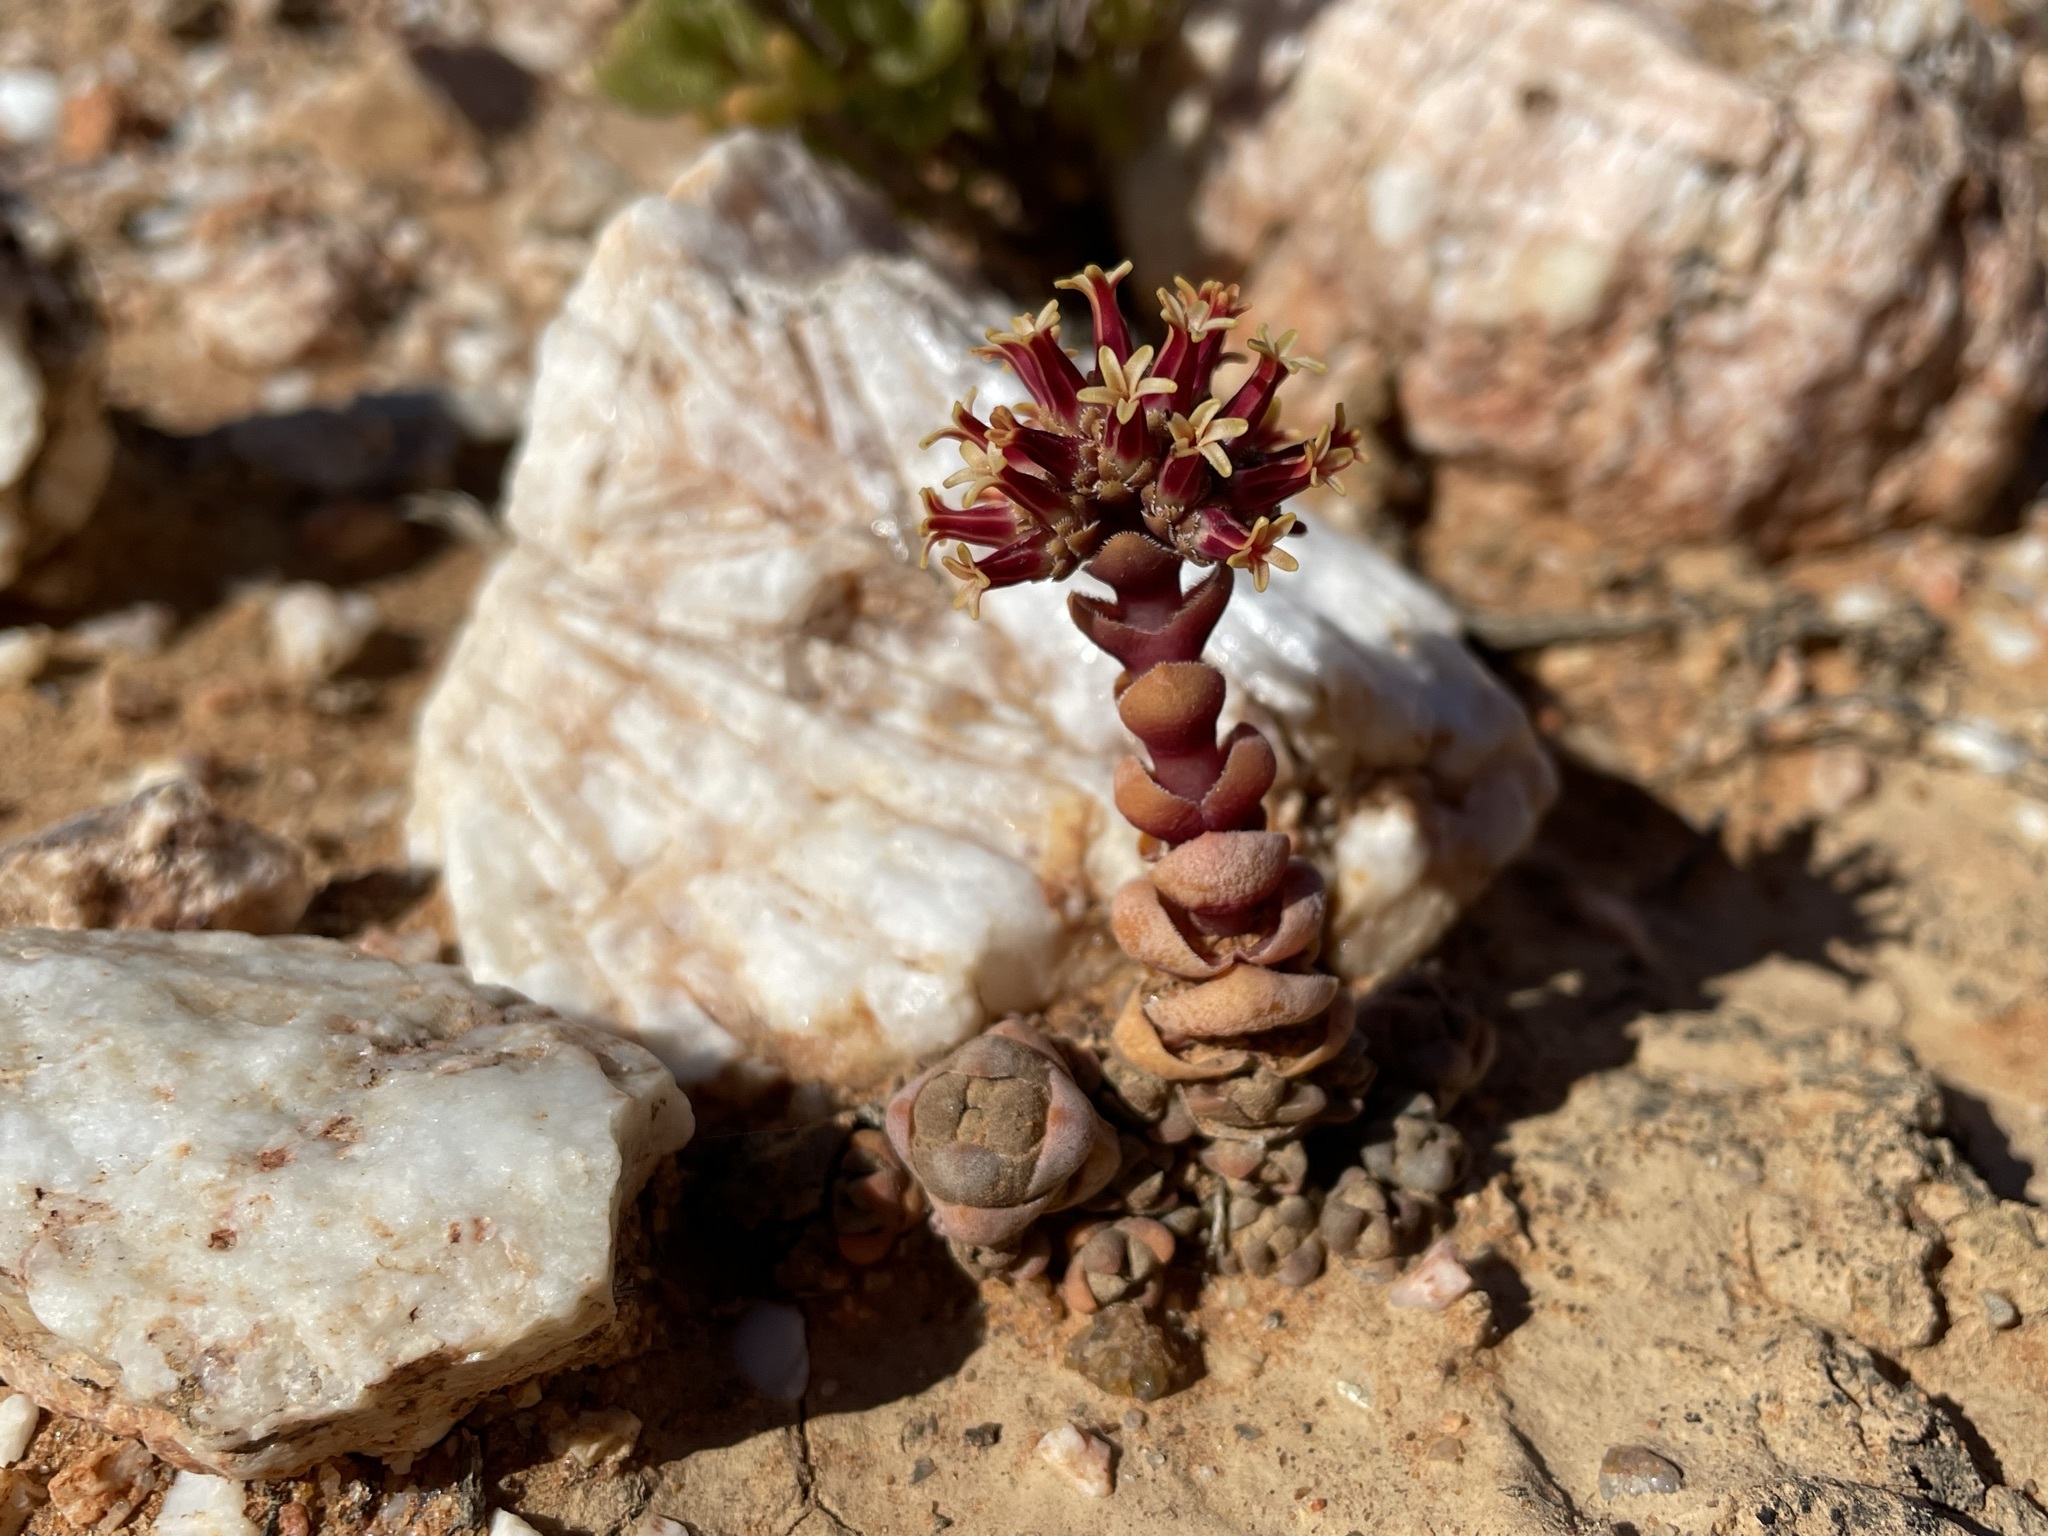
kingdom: Plantae
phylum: Tracheophyta
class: Magnoliopsida
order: Saxifragales
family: Crassulaceae
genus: Crassula
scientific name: Crassula columnaris
